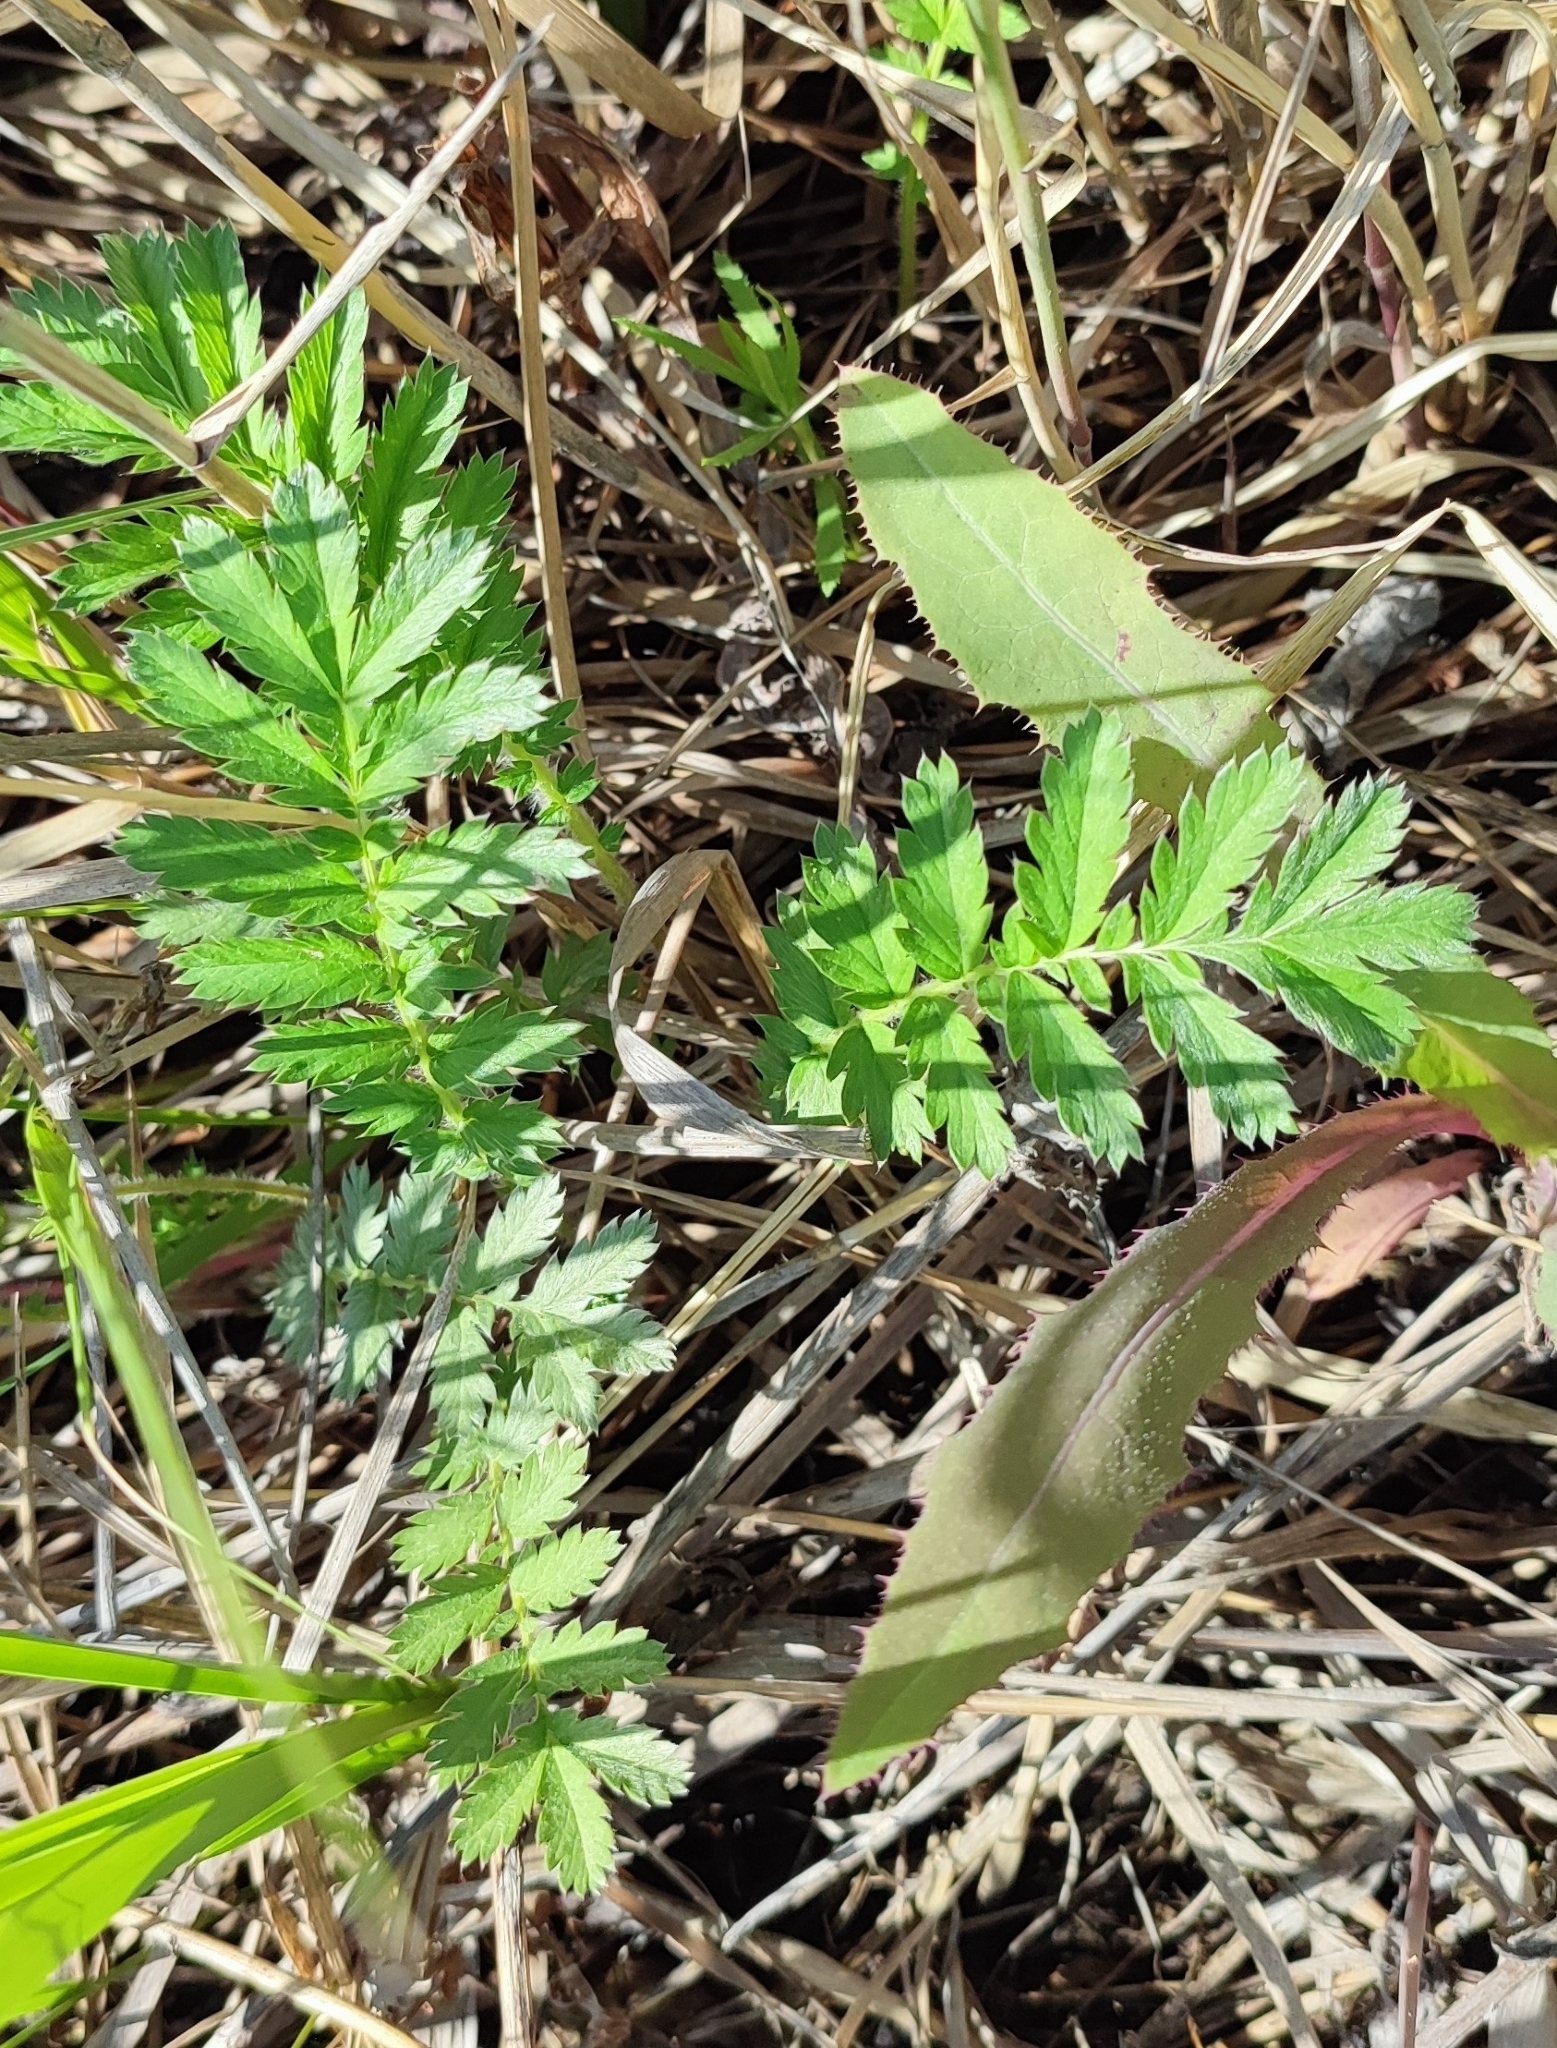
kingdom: Plantae
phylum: Tracheophyta
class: Magnoliopsida
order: Rosales
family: Rosaceae
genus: Argentina
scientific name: Argentina anserina
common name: Common silverweed
